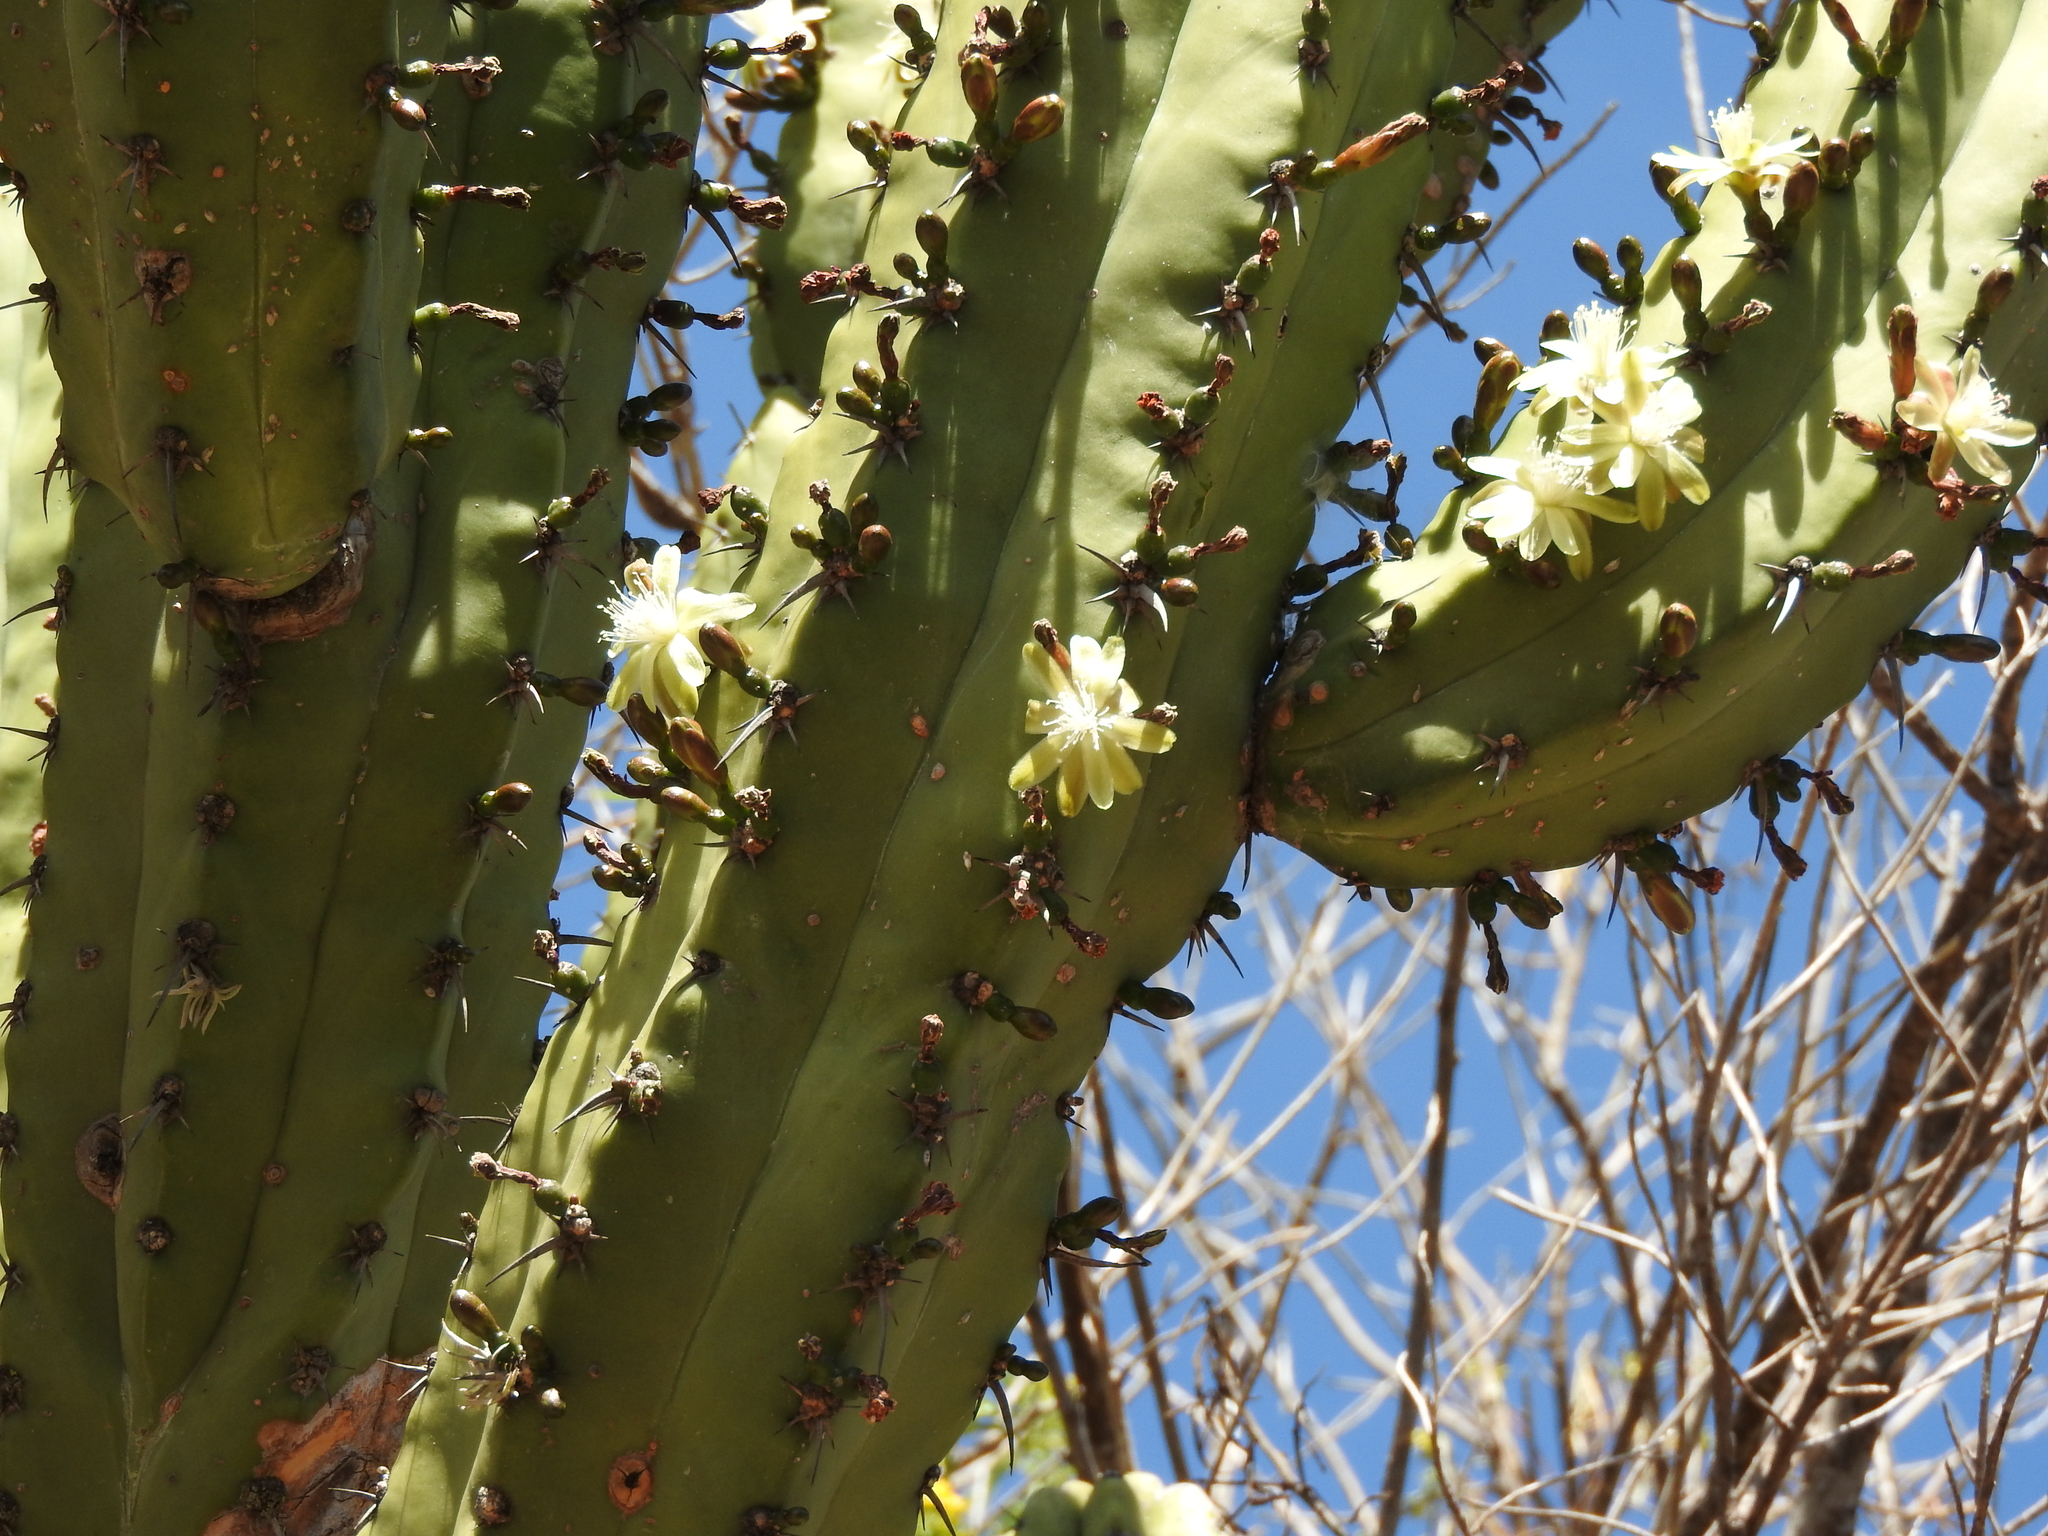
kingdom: Plantae
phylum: Tracheophyta
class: Magnoliopsida
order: Caryophyllales
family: Cactaceae
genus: Myrtillocactus
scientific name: Myrtillocactus geometrizans
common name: Bilberry cactus
